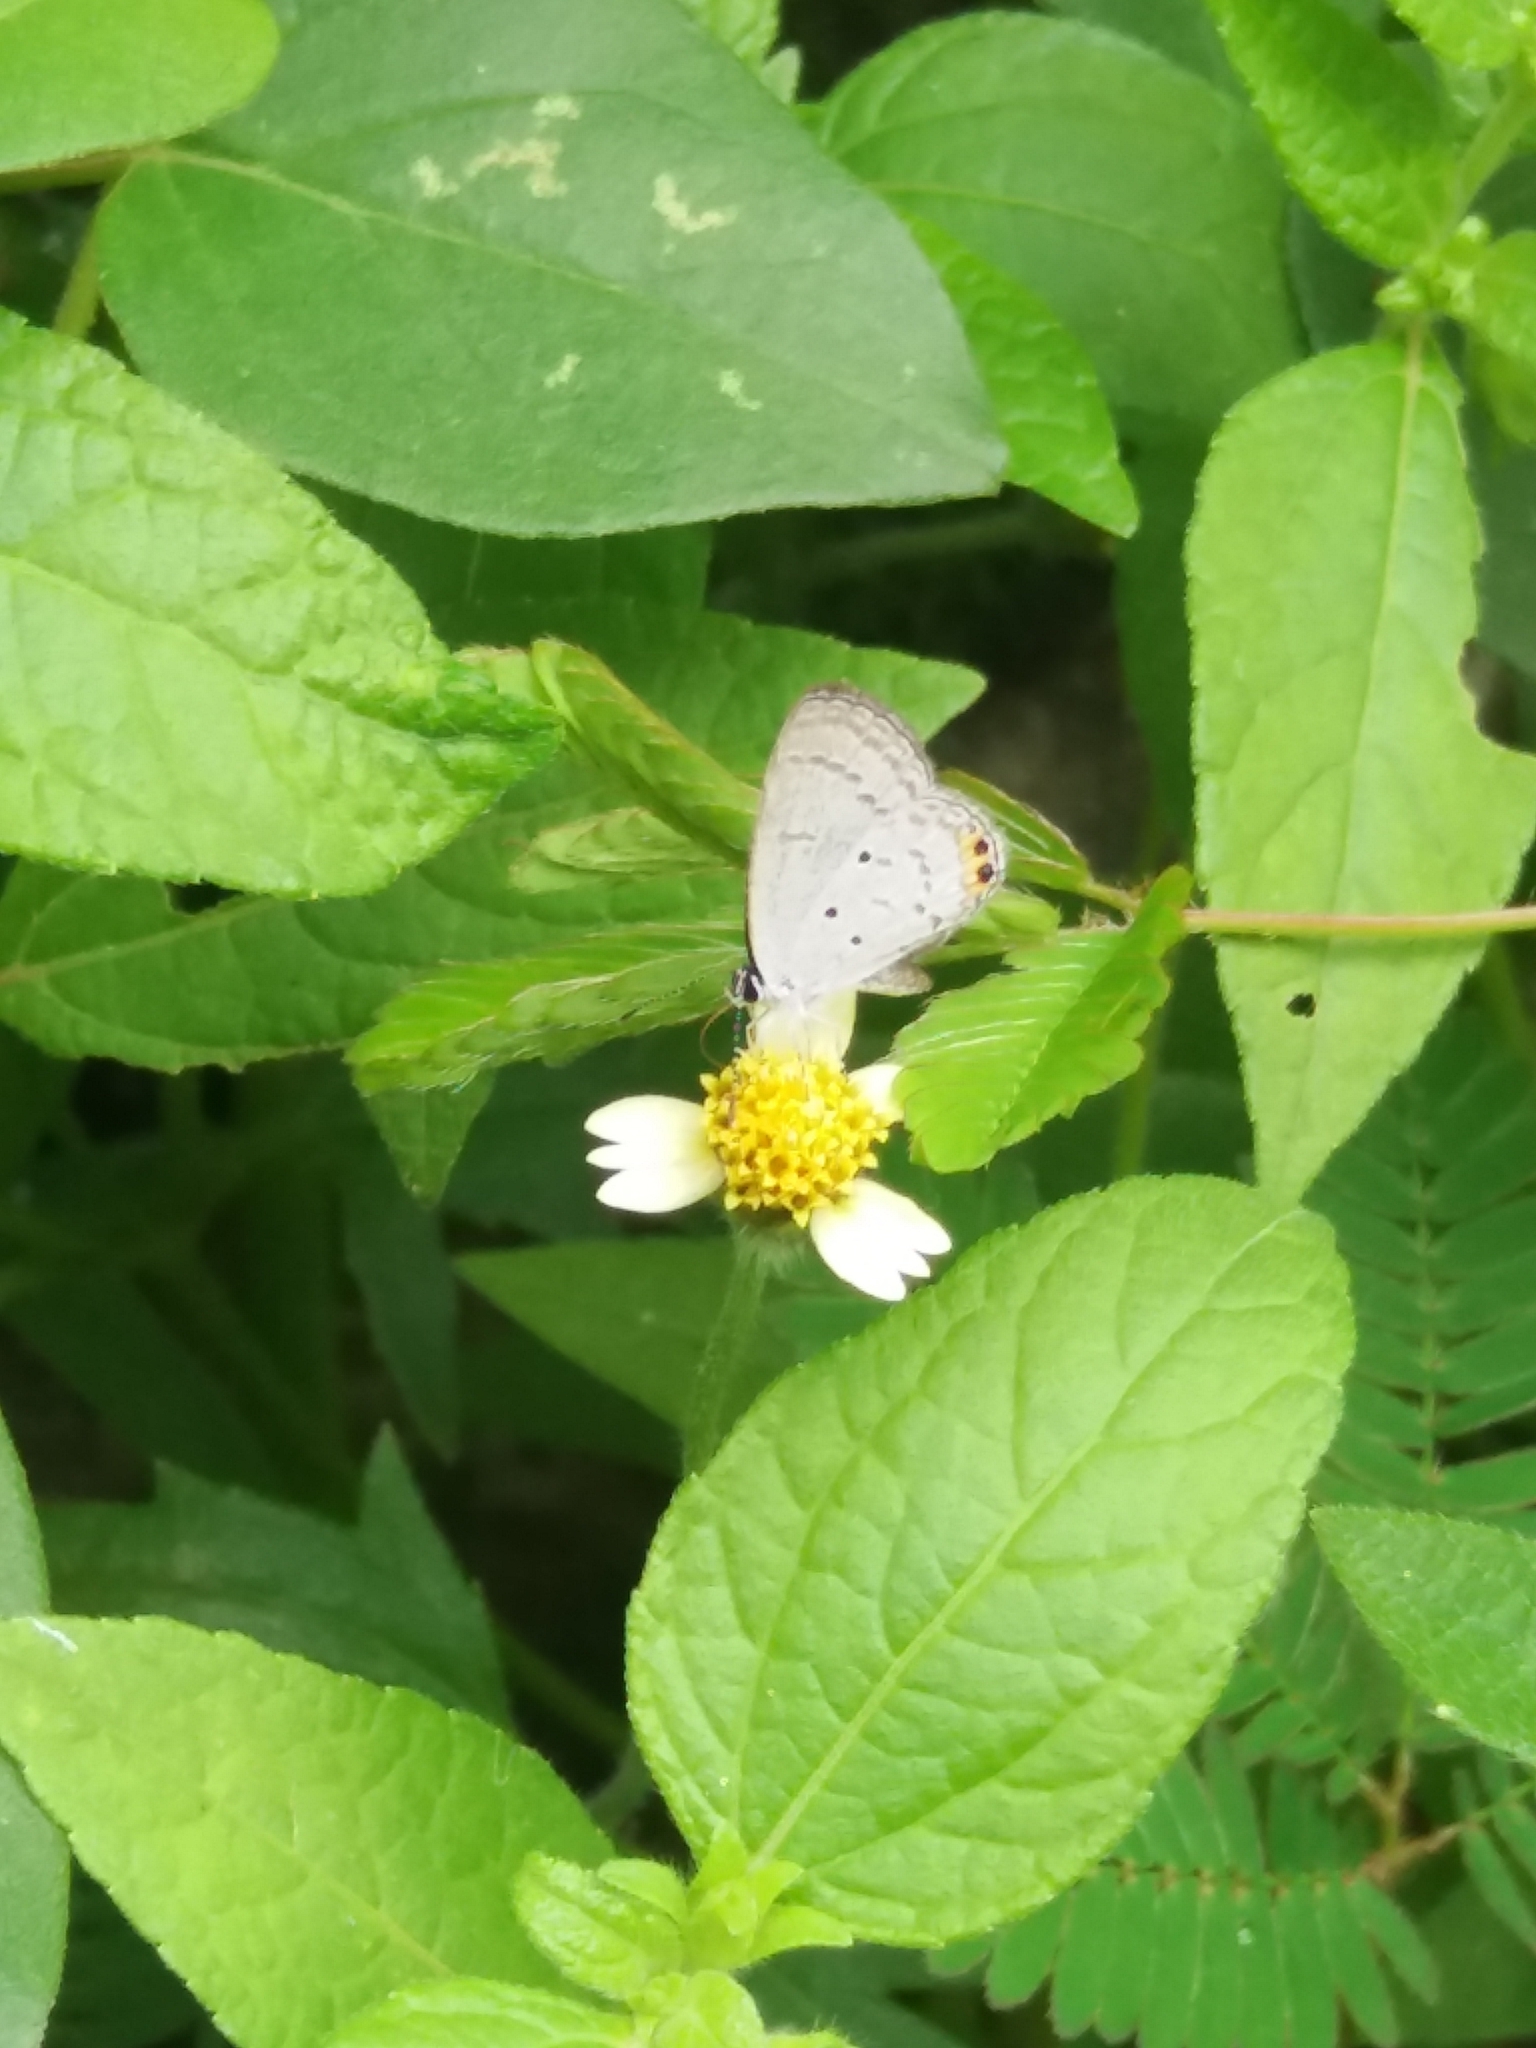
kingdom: Animalia
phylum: Arthropoda
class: Insecta
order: Lepidoptera
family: Lycaenidae
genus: Everes
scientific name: Everes lacturnus
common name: Orange-tipped pea-blue
